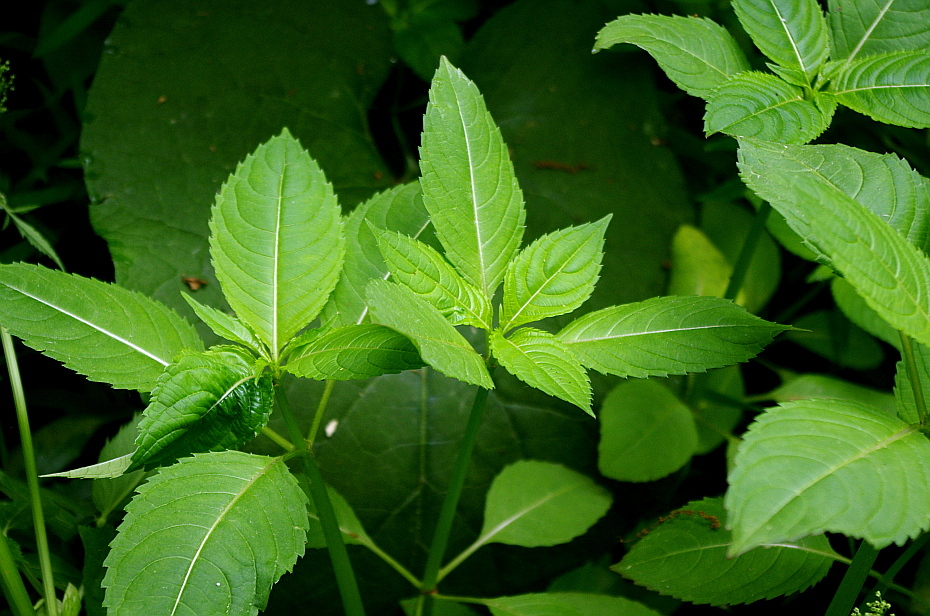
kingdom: Plantae
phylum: Tracheophyta
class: Magnoliopsida
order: Ericales
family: Balsaminaceae
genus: Impatiens
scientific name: Impatiens parviflora
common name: Small balsam
